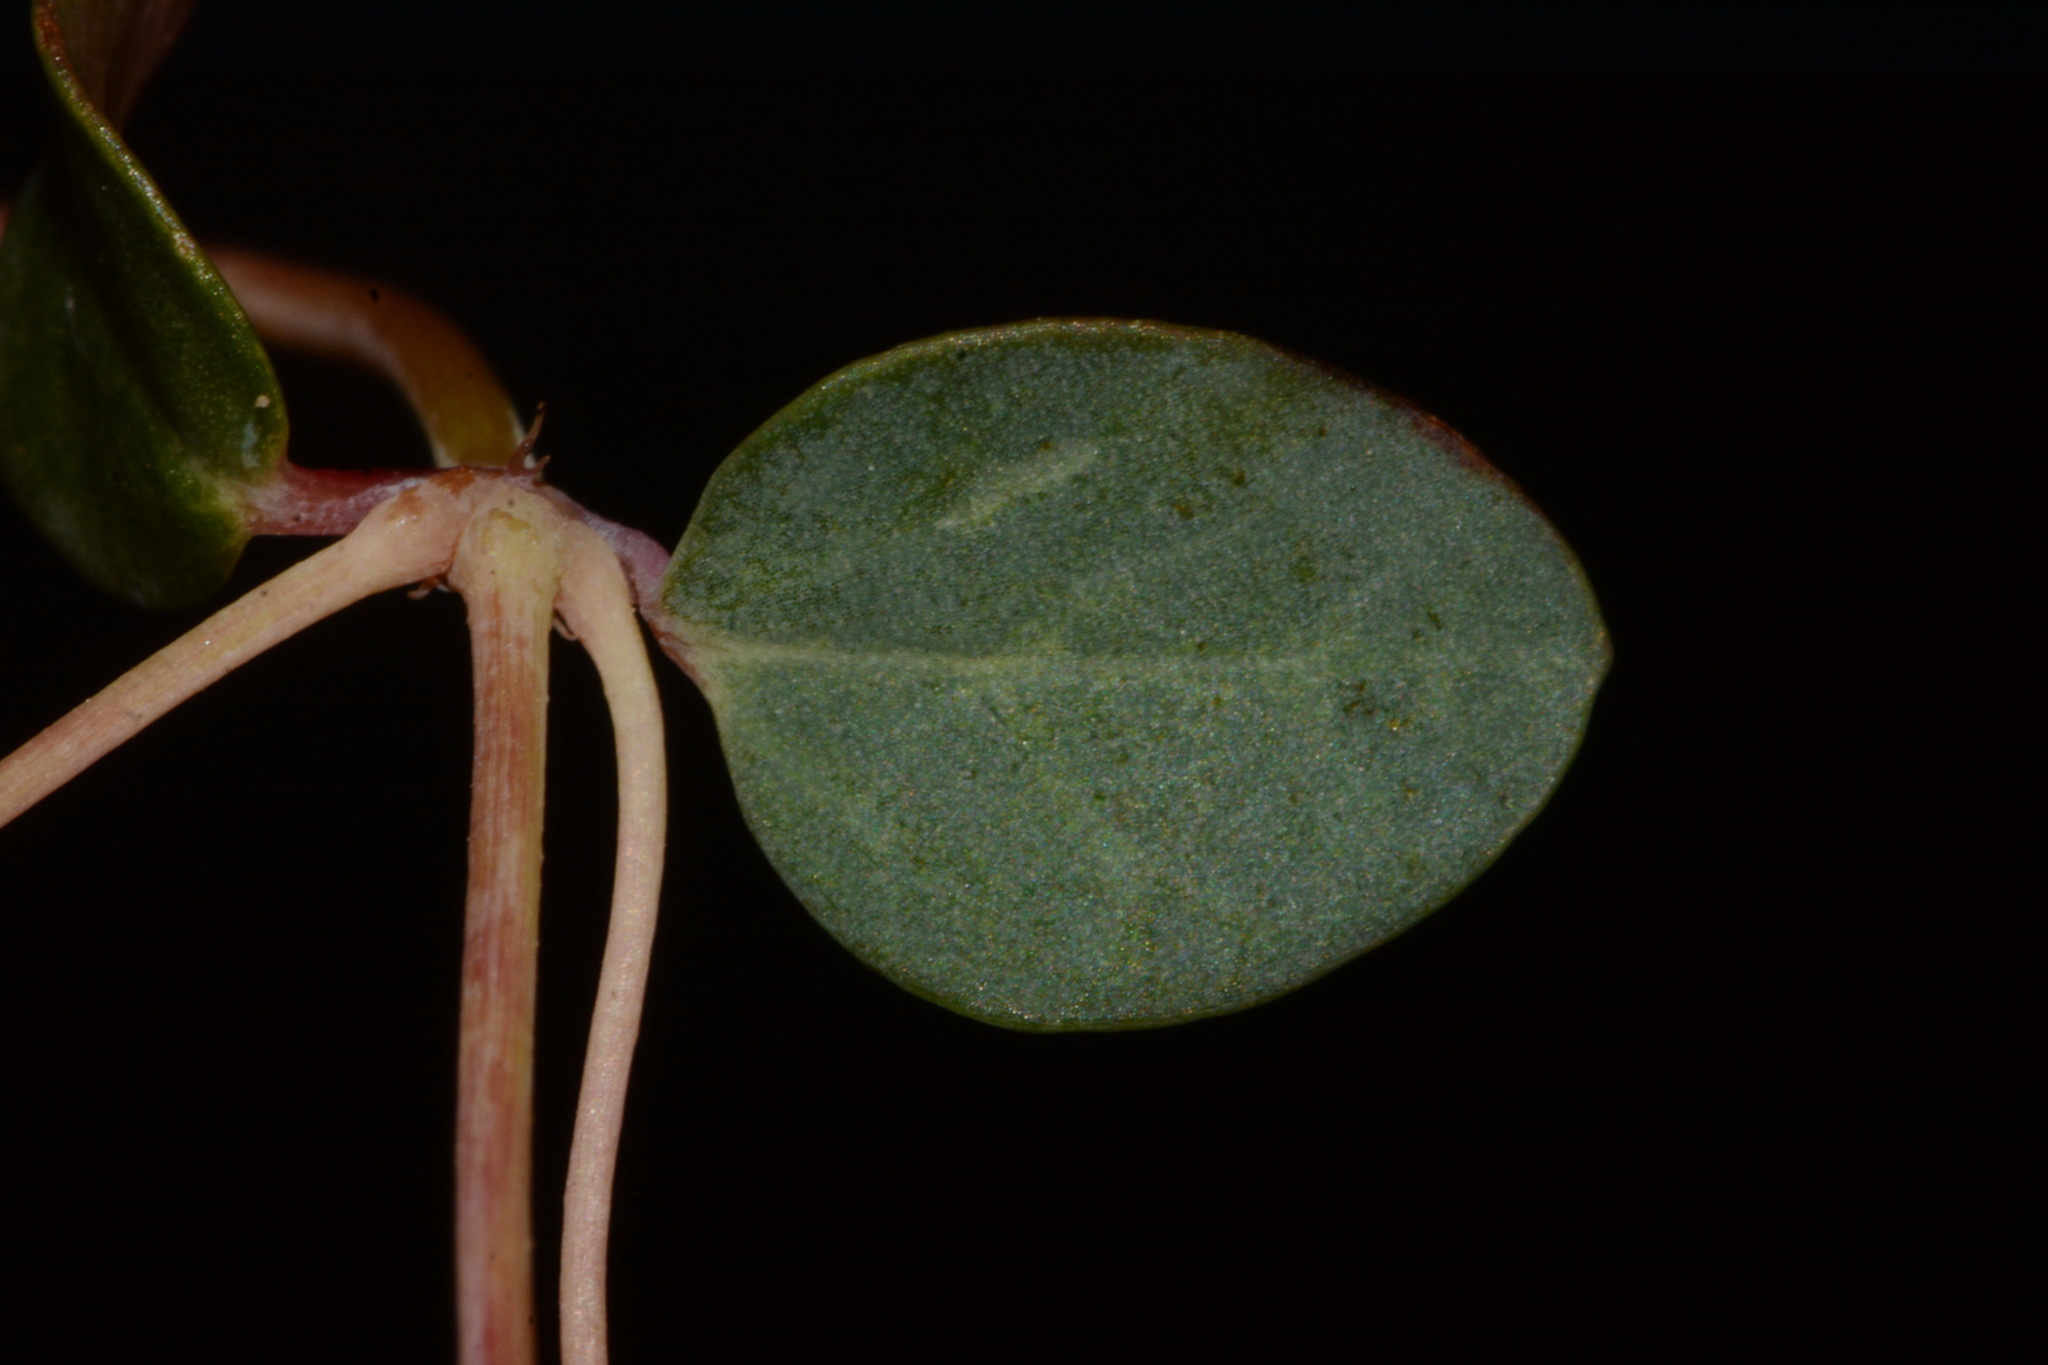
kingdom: Plantae
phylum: Tracheophyta
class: Magnoliopsida
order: Malpighiales
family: Euphorbiaceae
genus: Euphorbia
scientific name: Euphorbia fendleri
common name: Fendler's euphorbia
